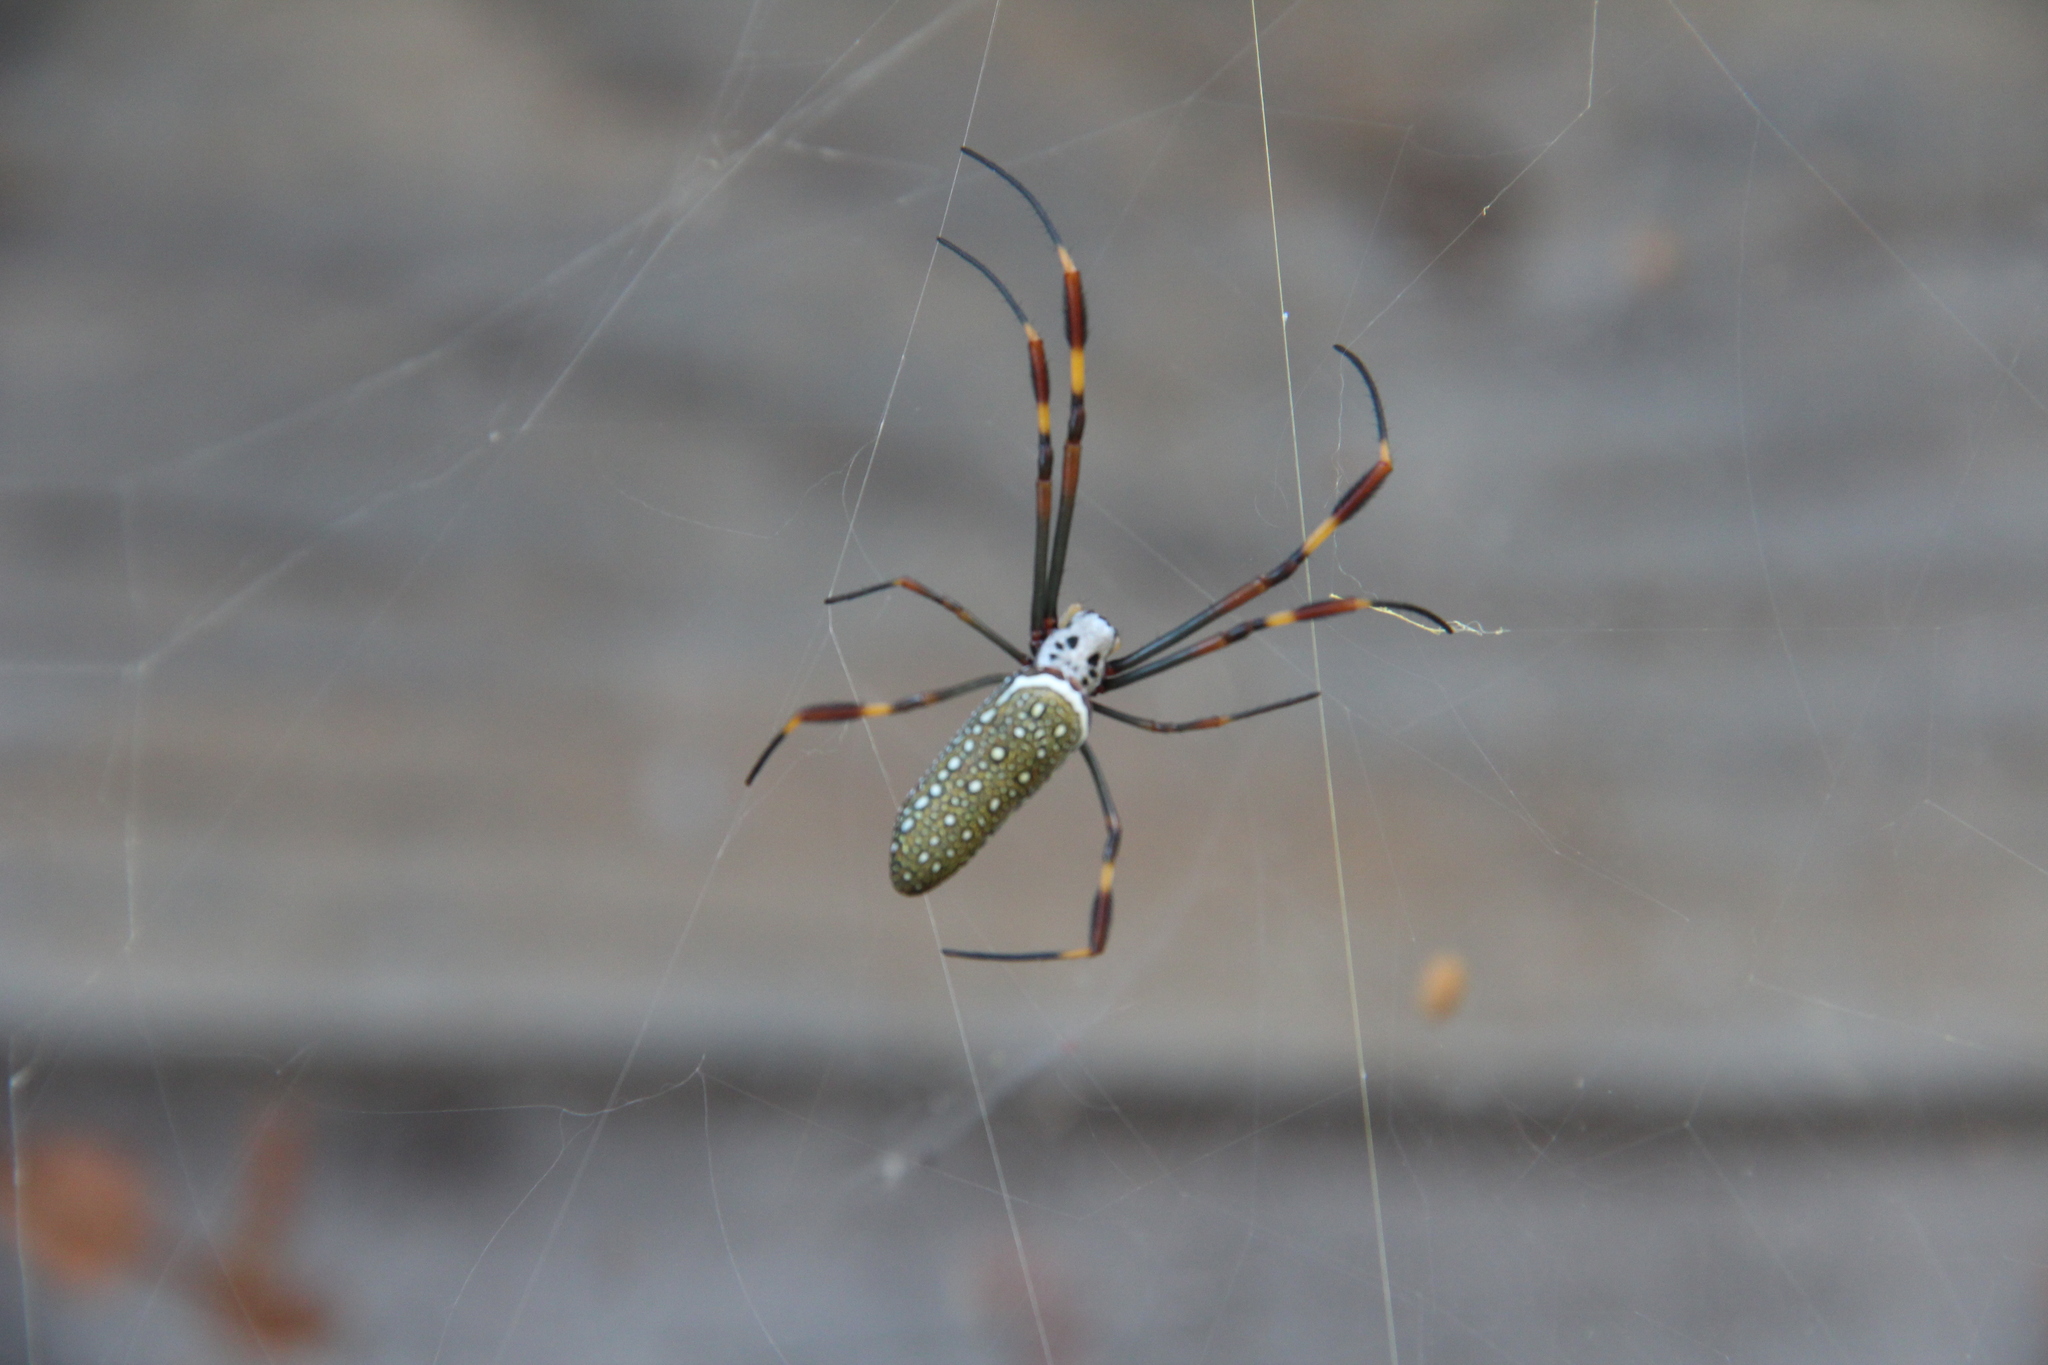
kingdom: Animalia
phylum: Arthropoda
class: Arachnida
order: Araneae
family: Araneidae
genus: Trichonephila
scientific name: Trichonephila clavipes
